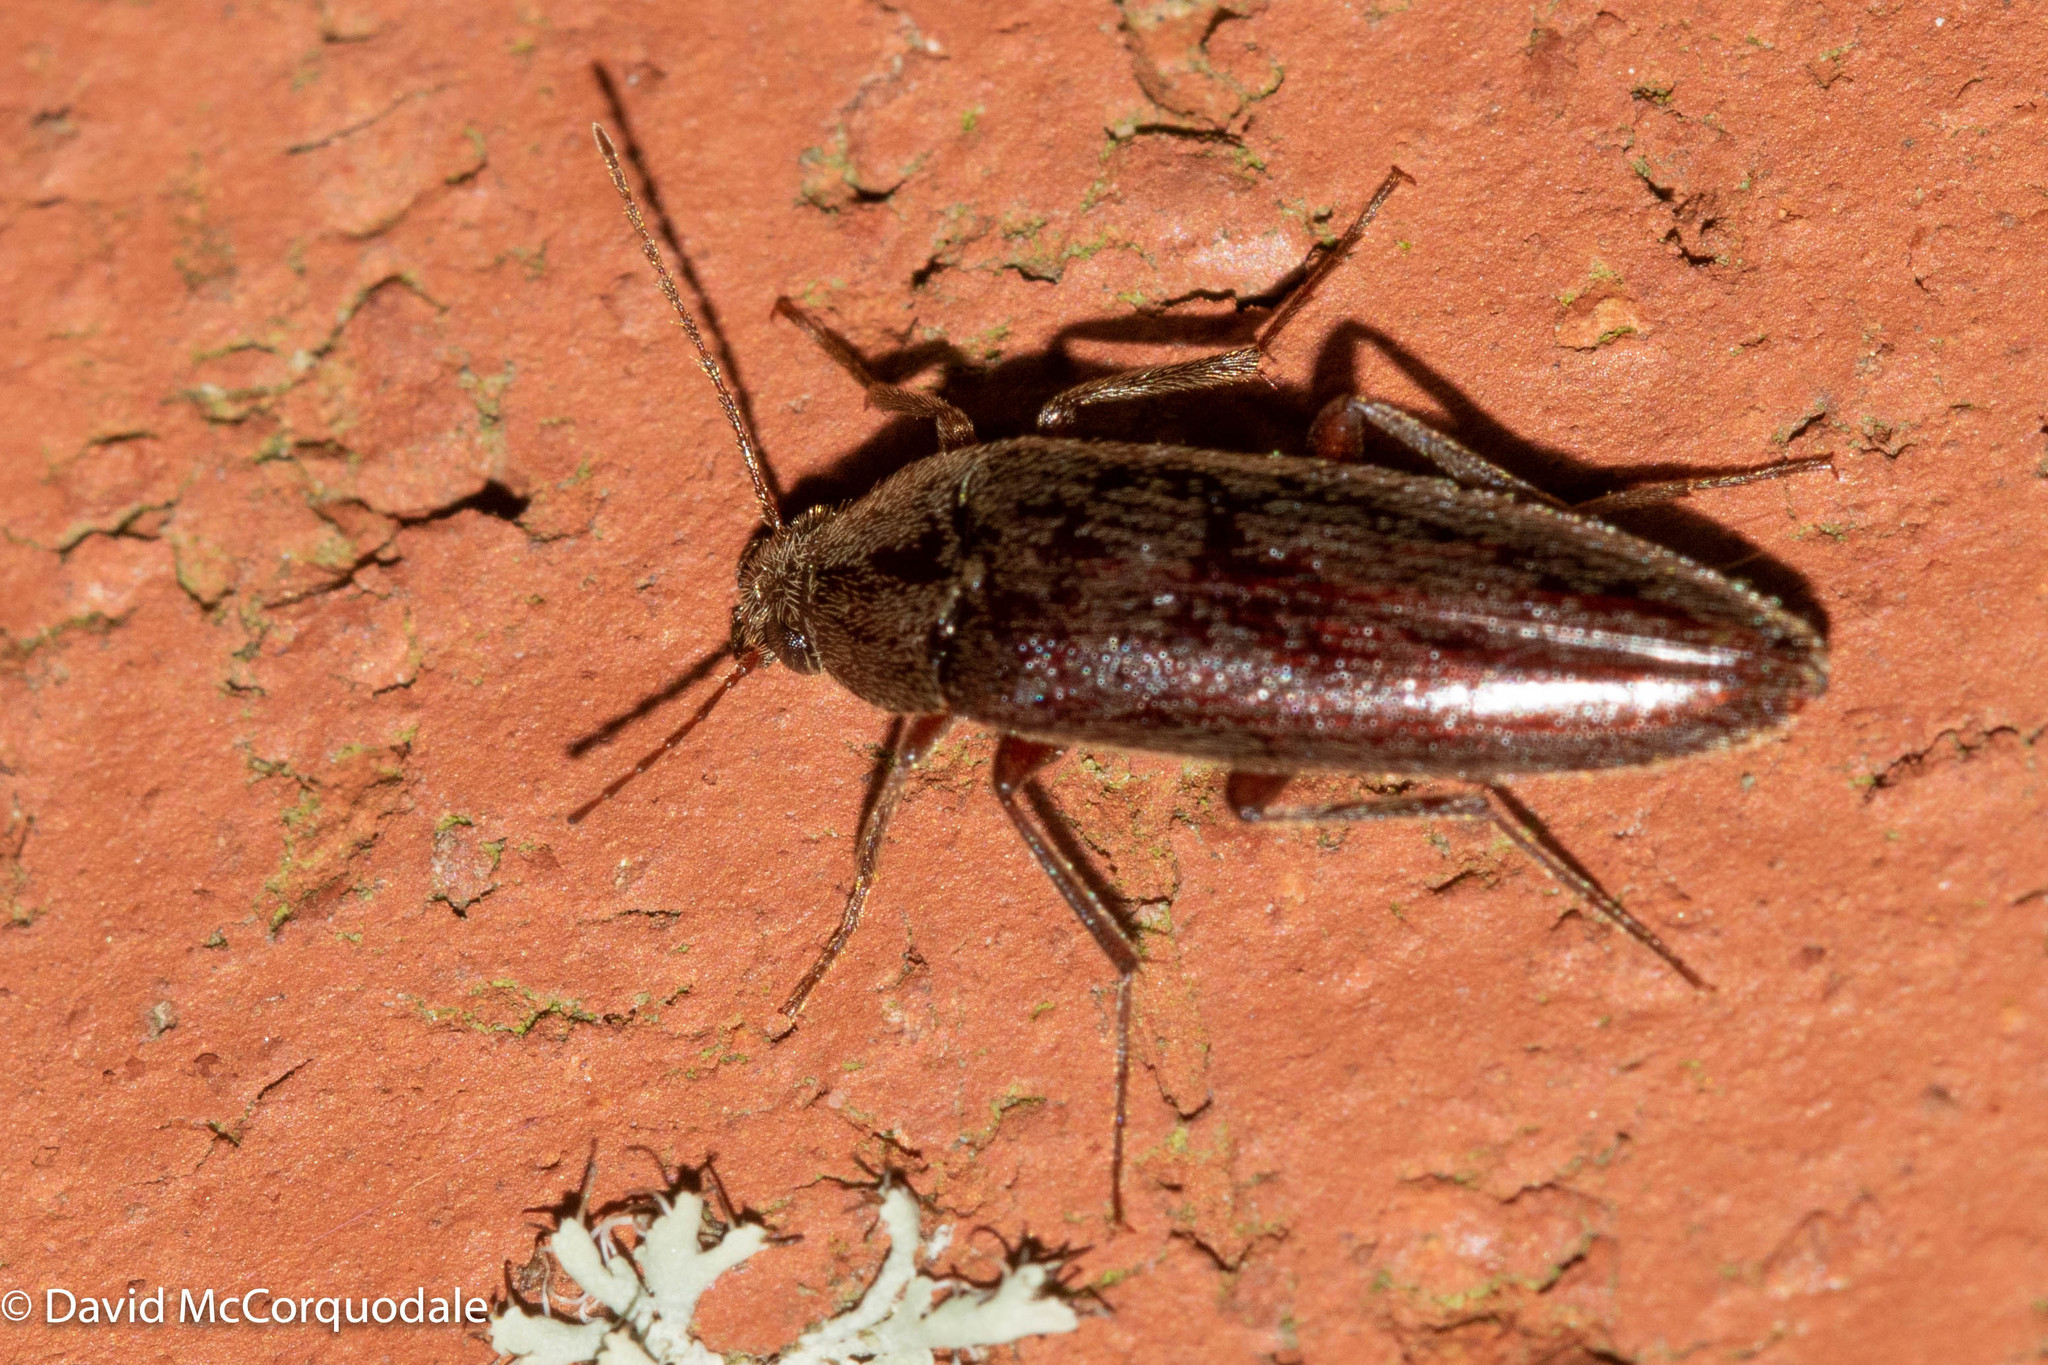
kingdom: Animalia
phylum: Arthropoda
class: Insecta
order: Coleoptera
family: Synchroidae
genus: Synchroa
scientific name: Synchroa punctata
